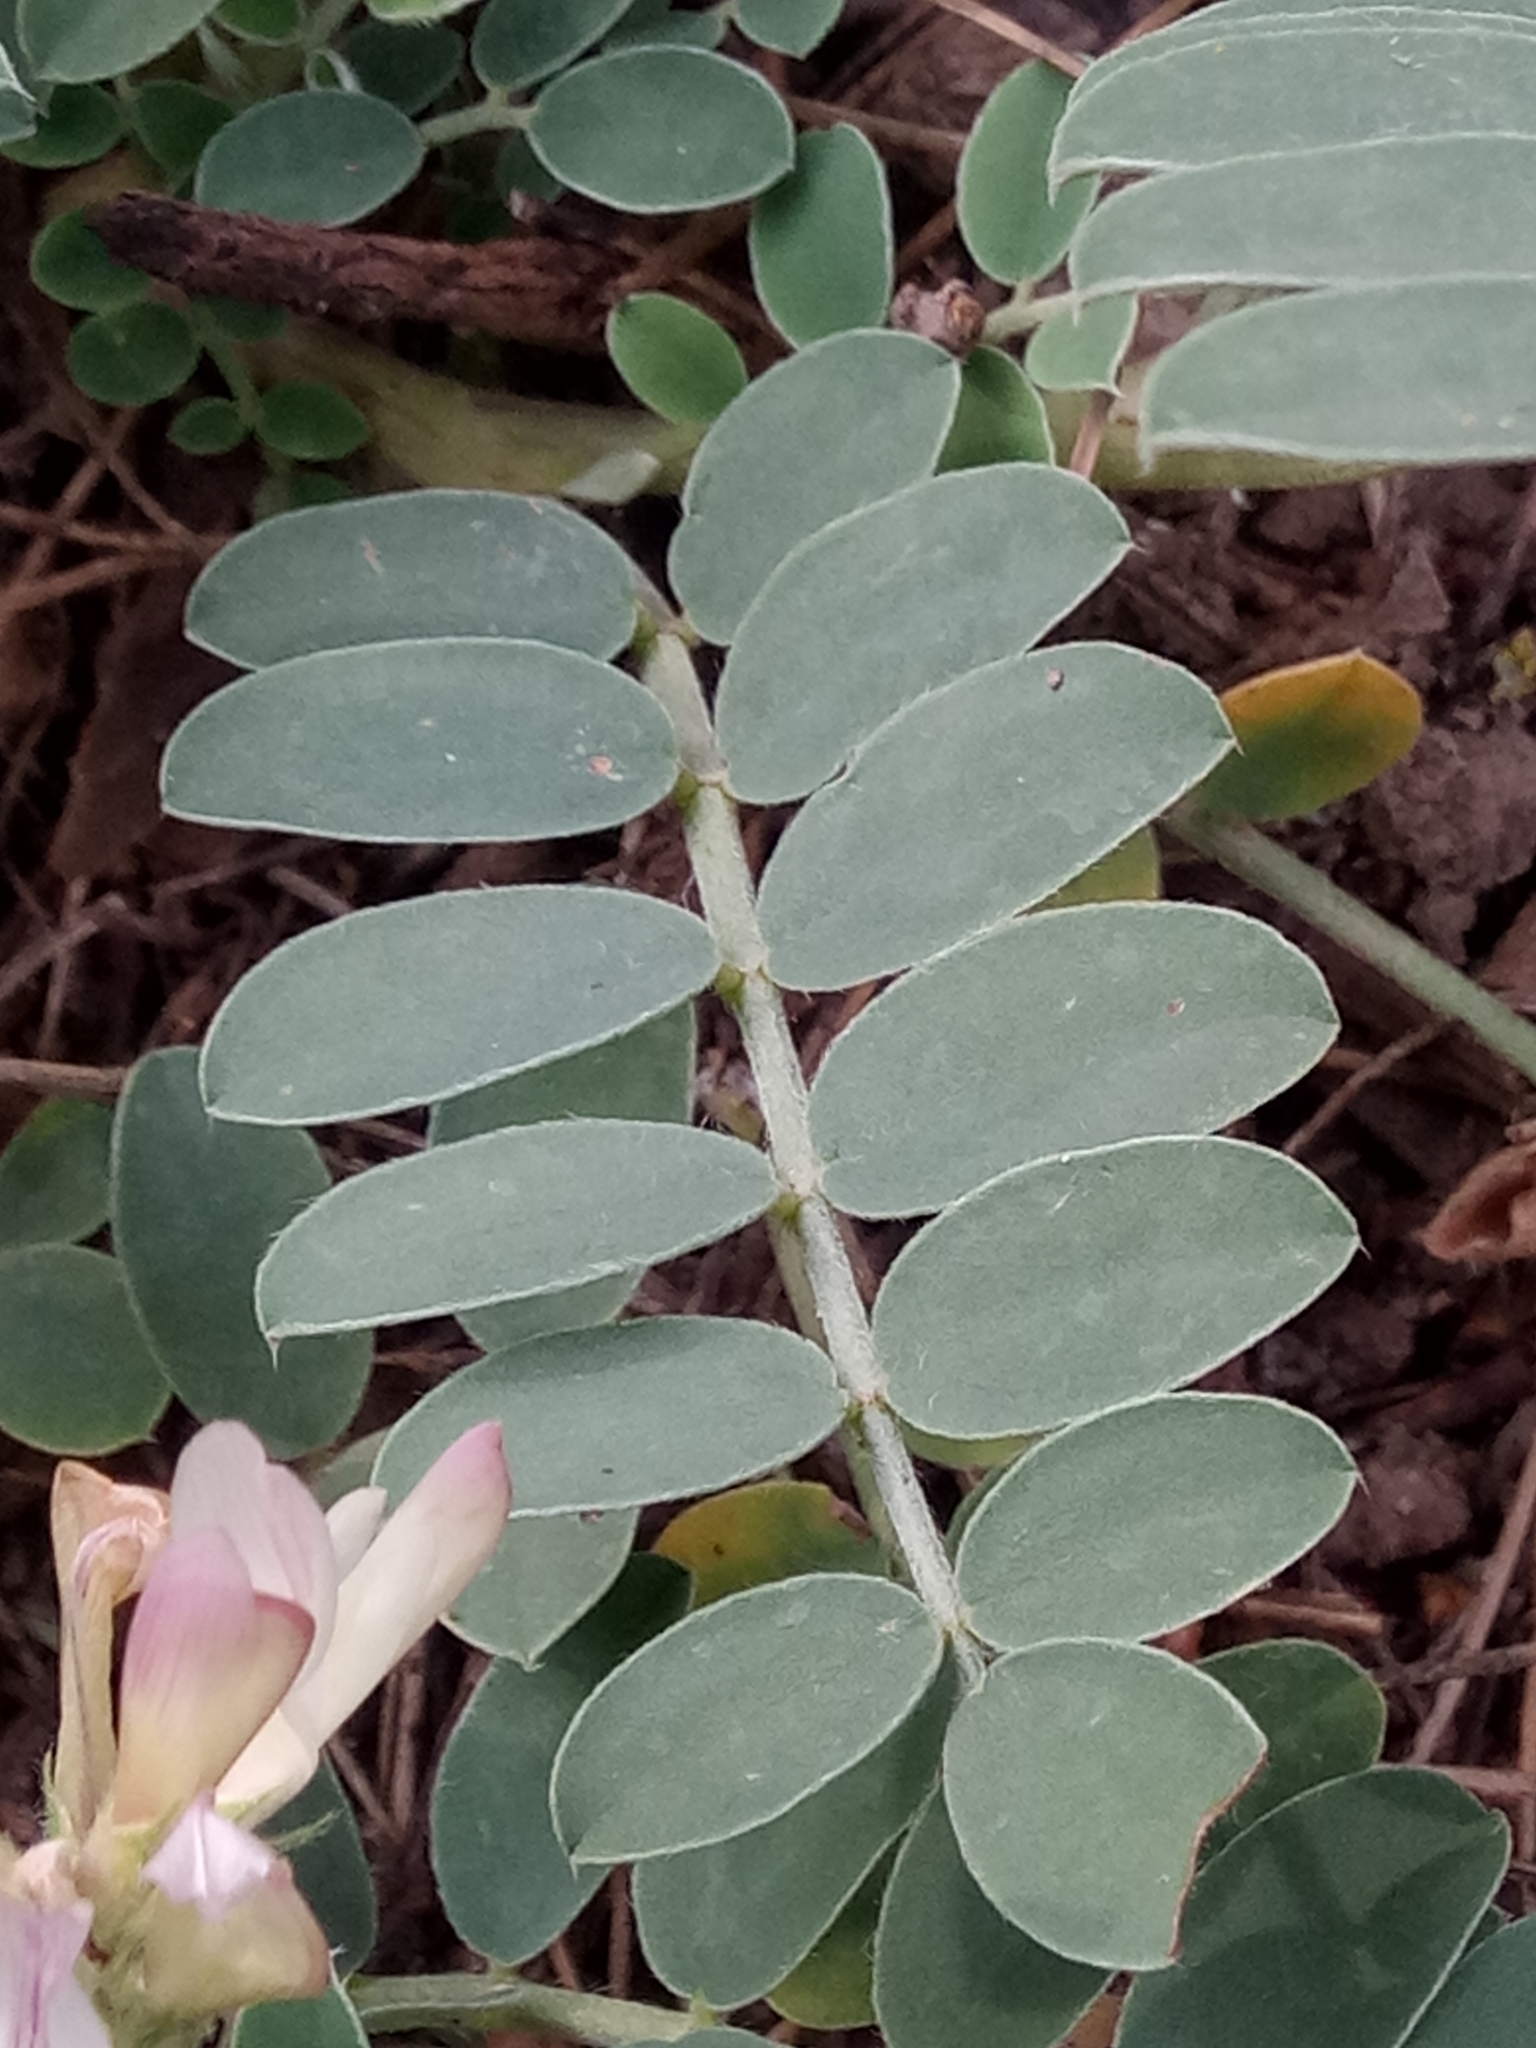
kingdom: Plantae
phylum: Tracheophyta
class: Magnoliopsida
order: Fabales
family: Fabaceae
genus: Sulla
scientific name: Sulla pallida
